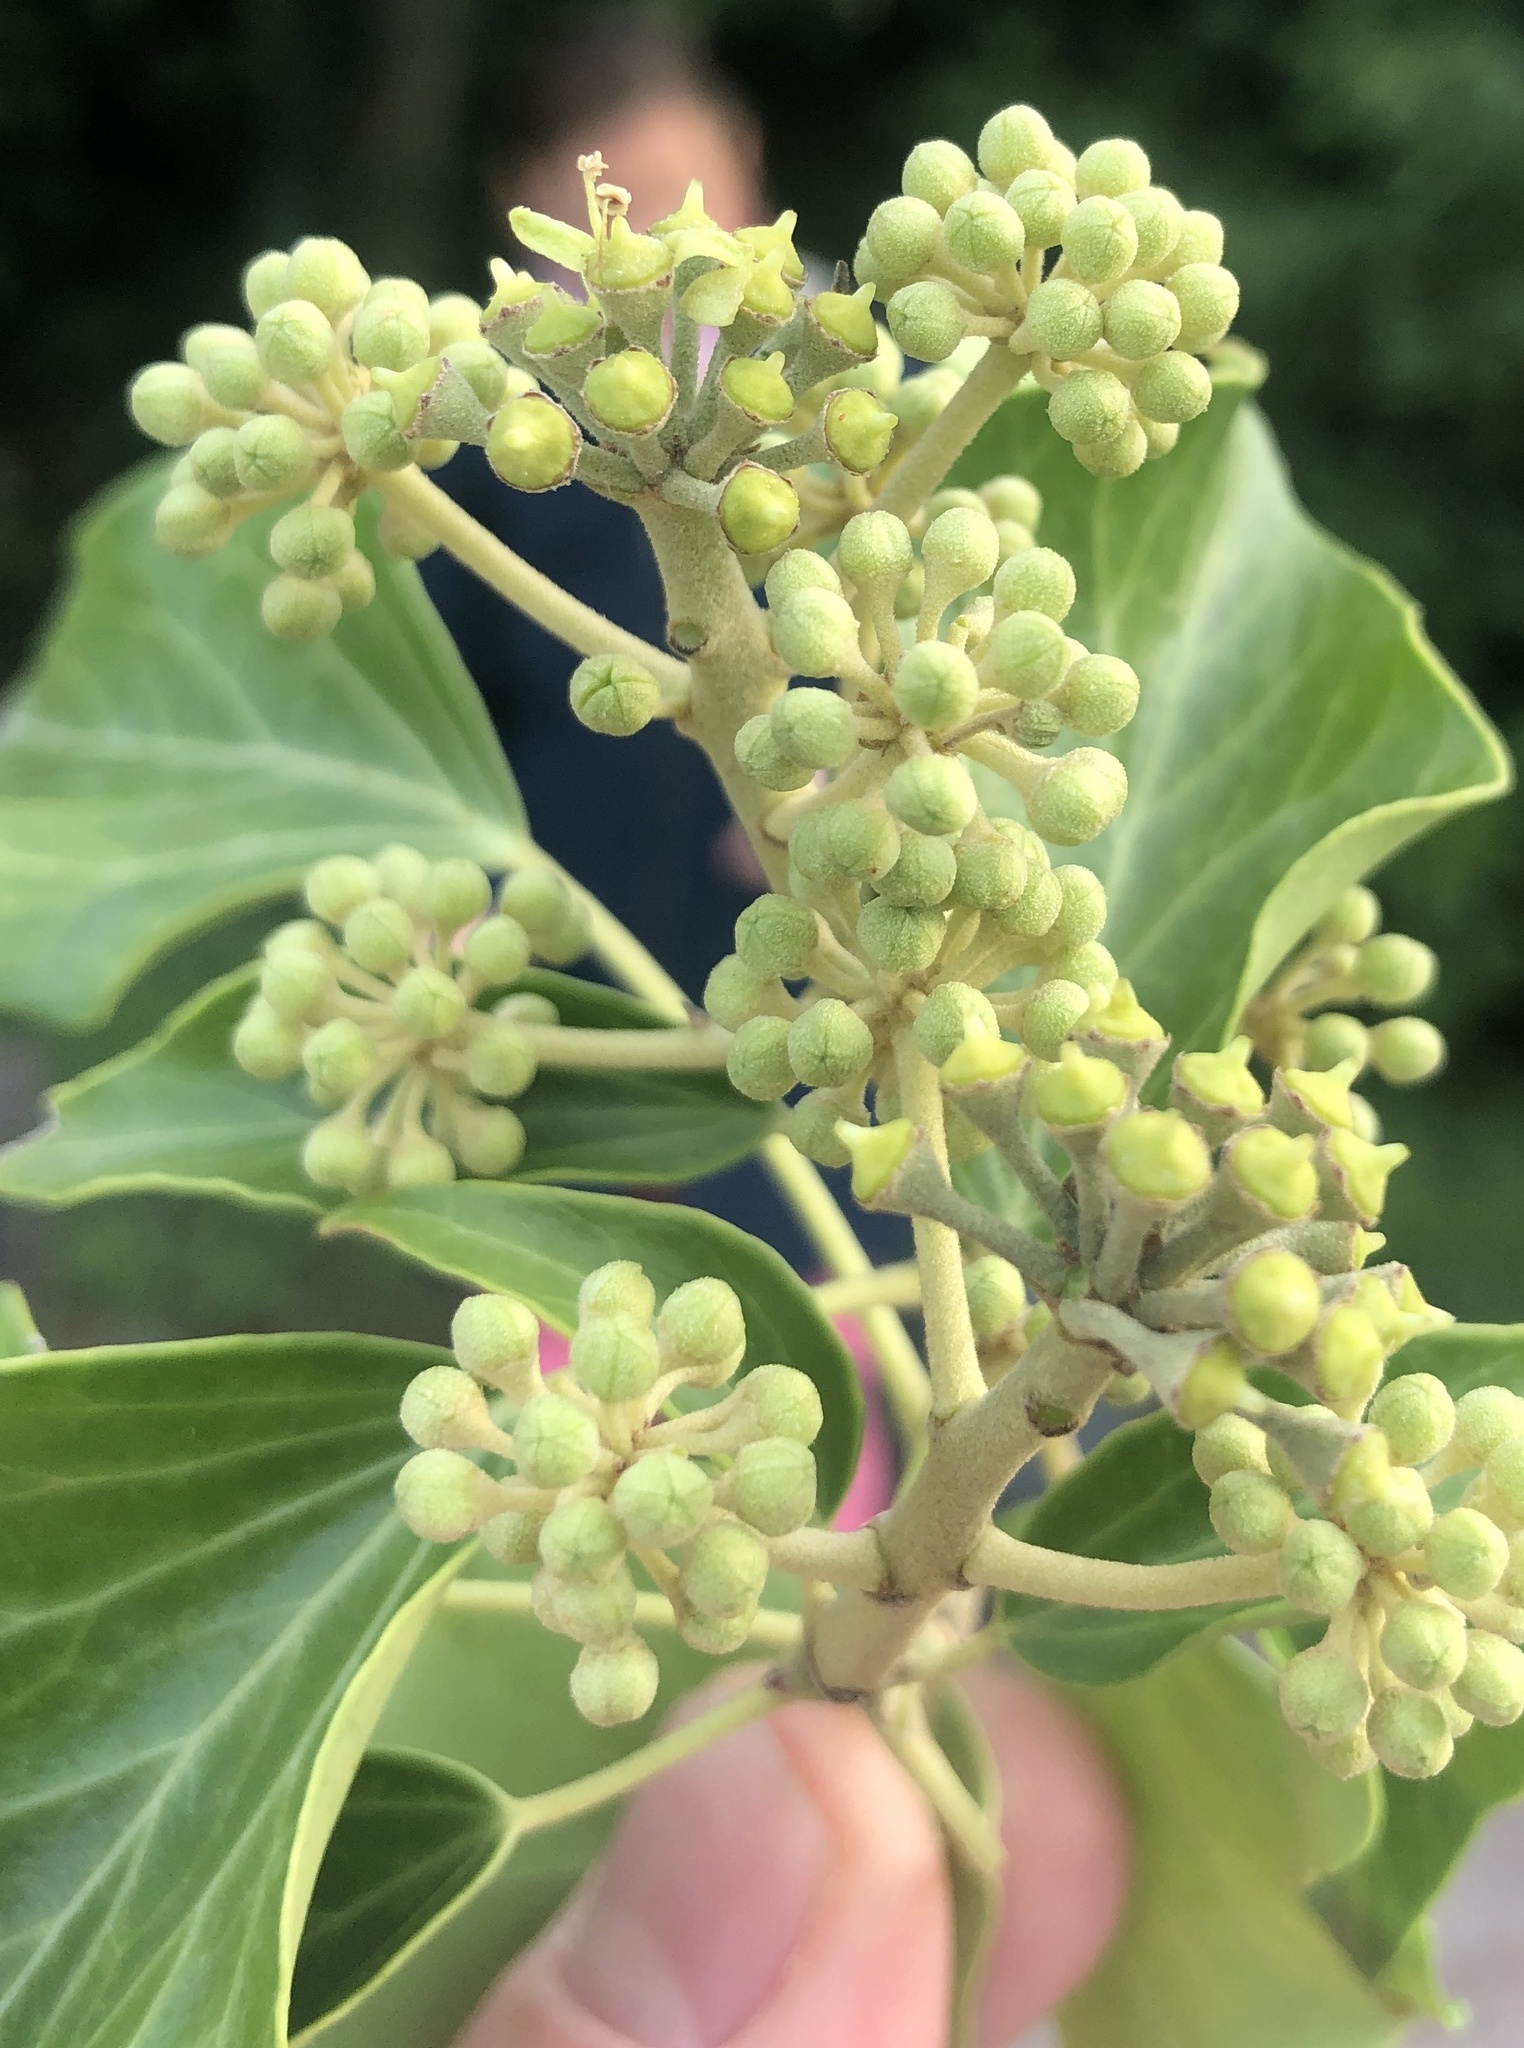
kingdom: Plantae
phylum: Tracheophyta
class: Magnoliopsida
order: Apiales
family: Araliaceae
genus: Hedera
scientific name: Hedera helix
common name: Ivy
